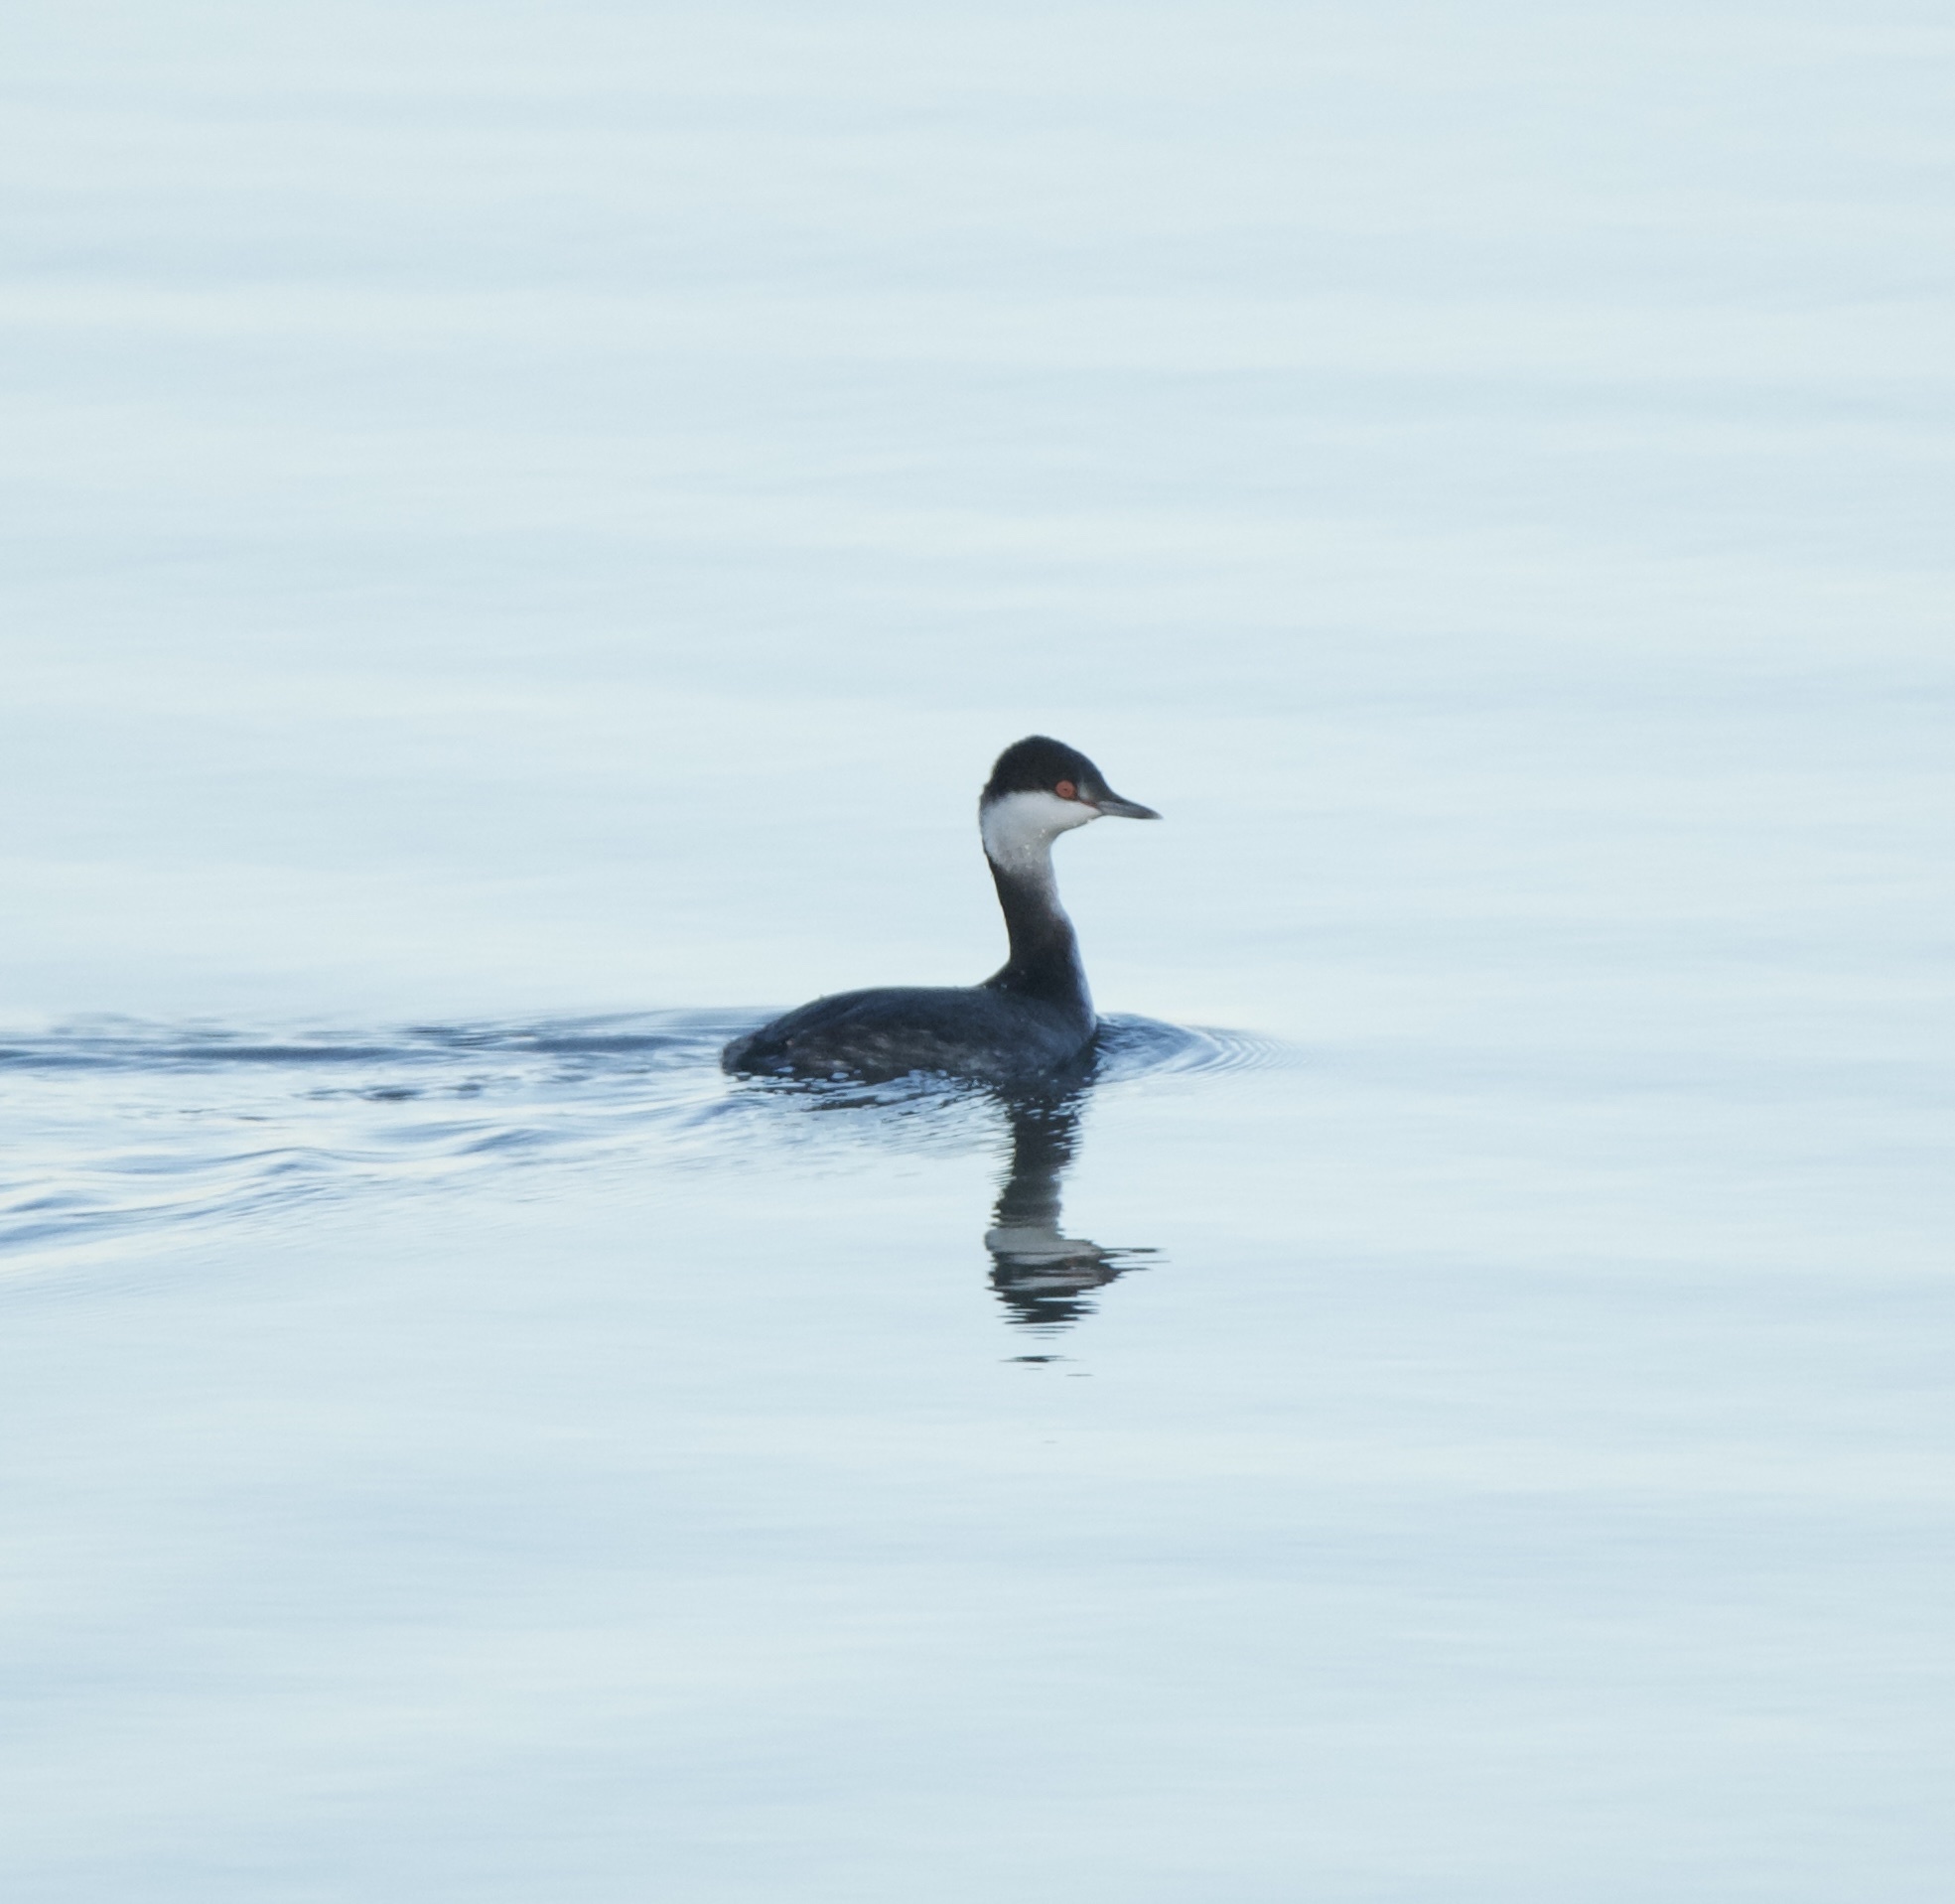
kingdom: Animalia
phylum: Chordata
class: Aves
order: Podicipediformes
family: Podicipedidae
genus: Podiceps
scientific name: Podiceps auritus
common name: Horned grebe
